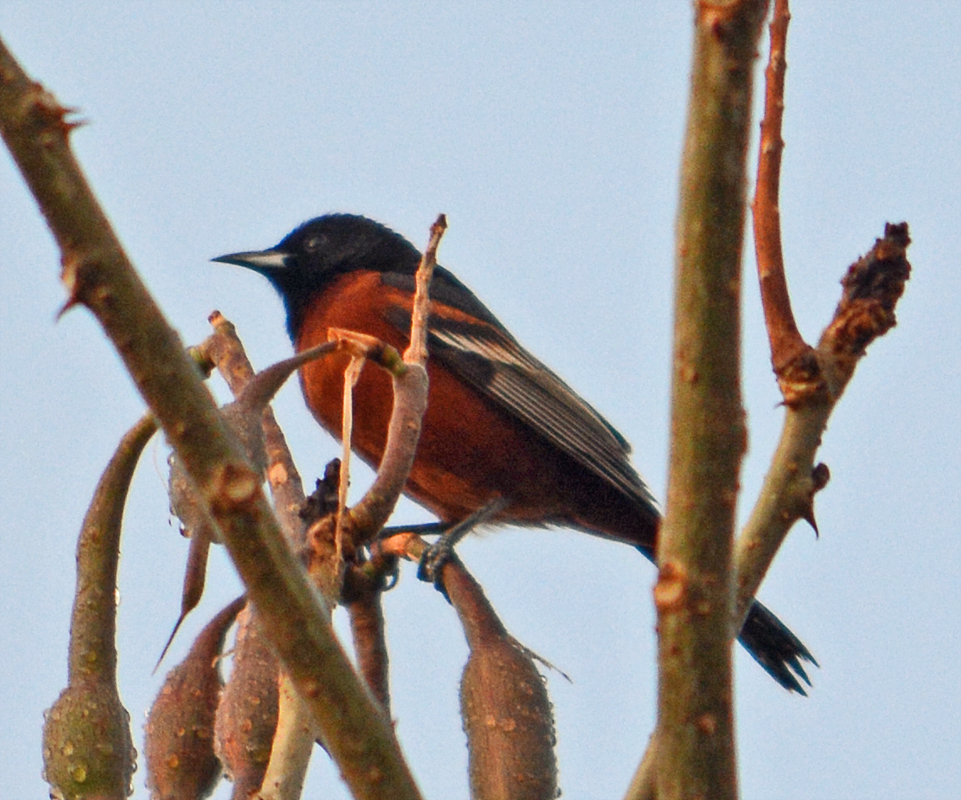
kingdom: Animalia
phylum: Chordata
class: Aves
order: Passeriformes
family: Icteridae
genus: Icterus
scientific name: Icterus spurius
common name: Orchard oriole
